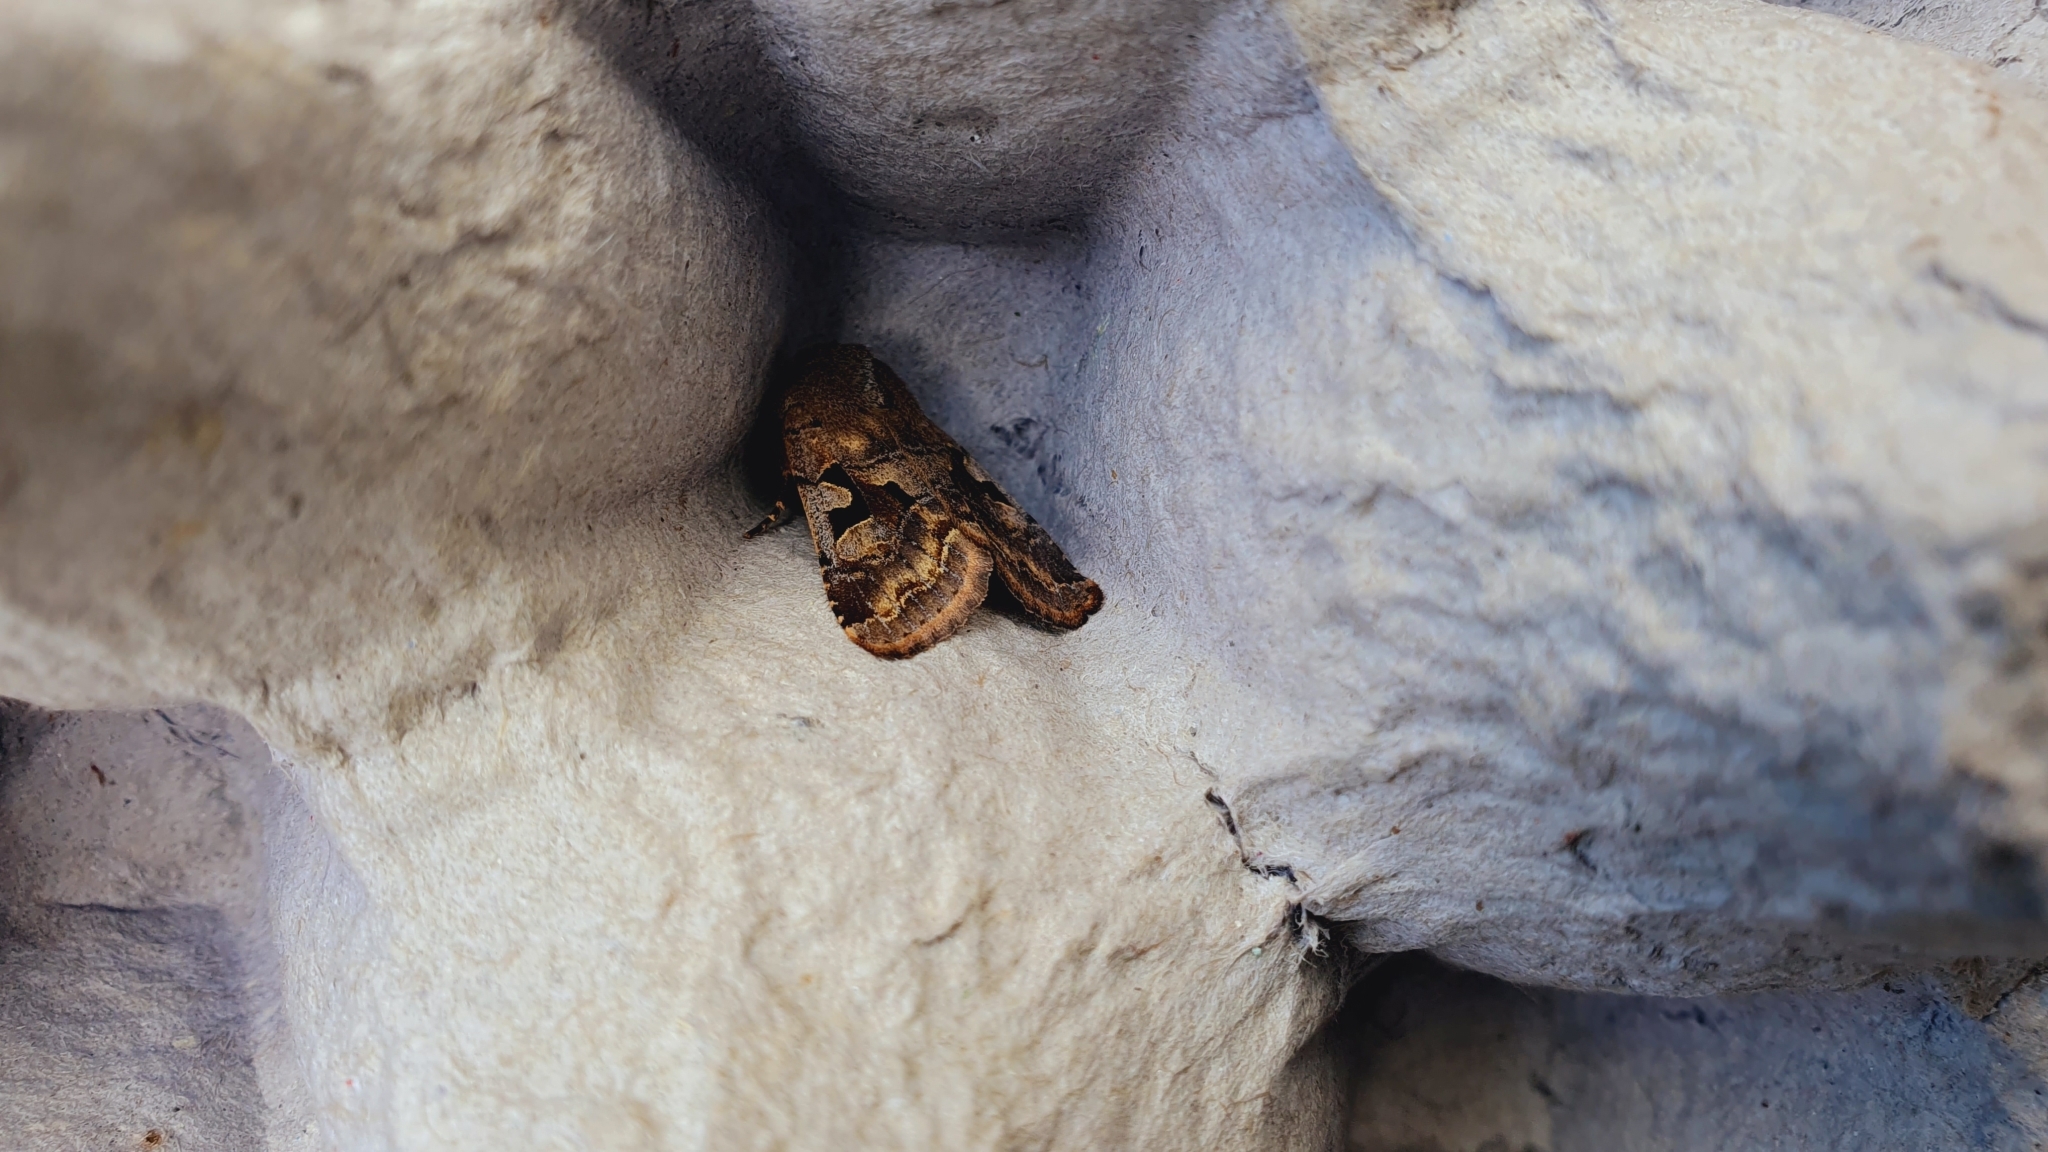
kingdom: Animalia
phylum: Arthropoda
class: Insecta
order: Lepidoptera
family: Noctuidae
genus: Orthosia
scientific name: Orthosia gothica
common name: Hebrew character
